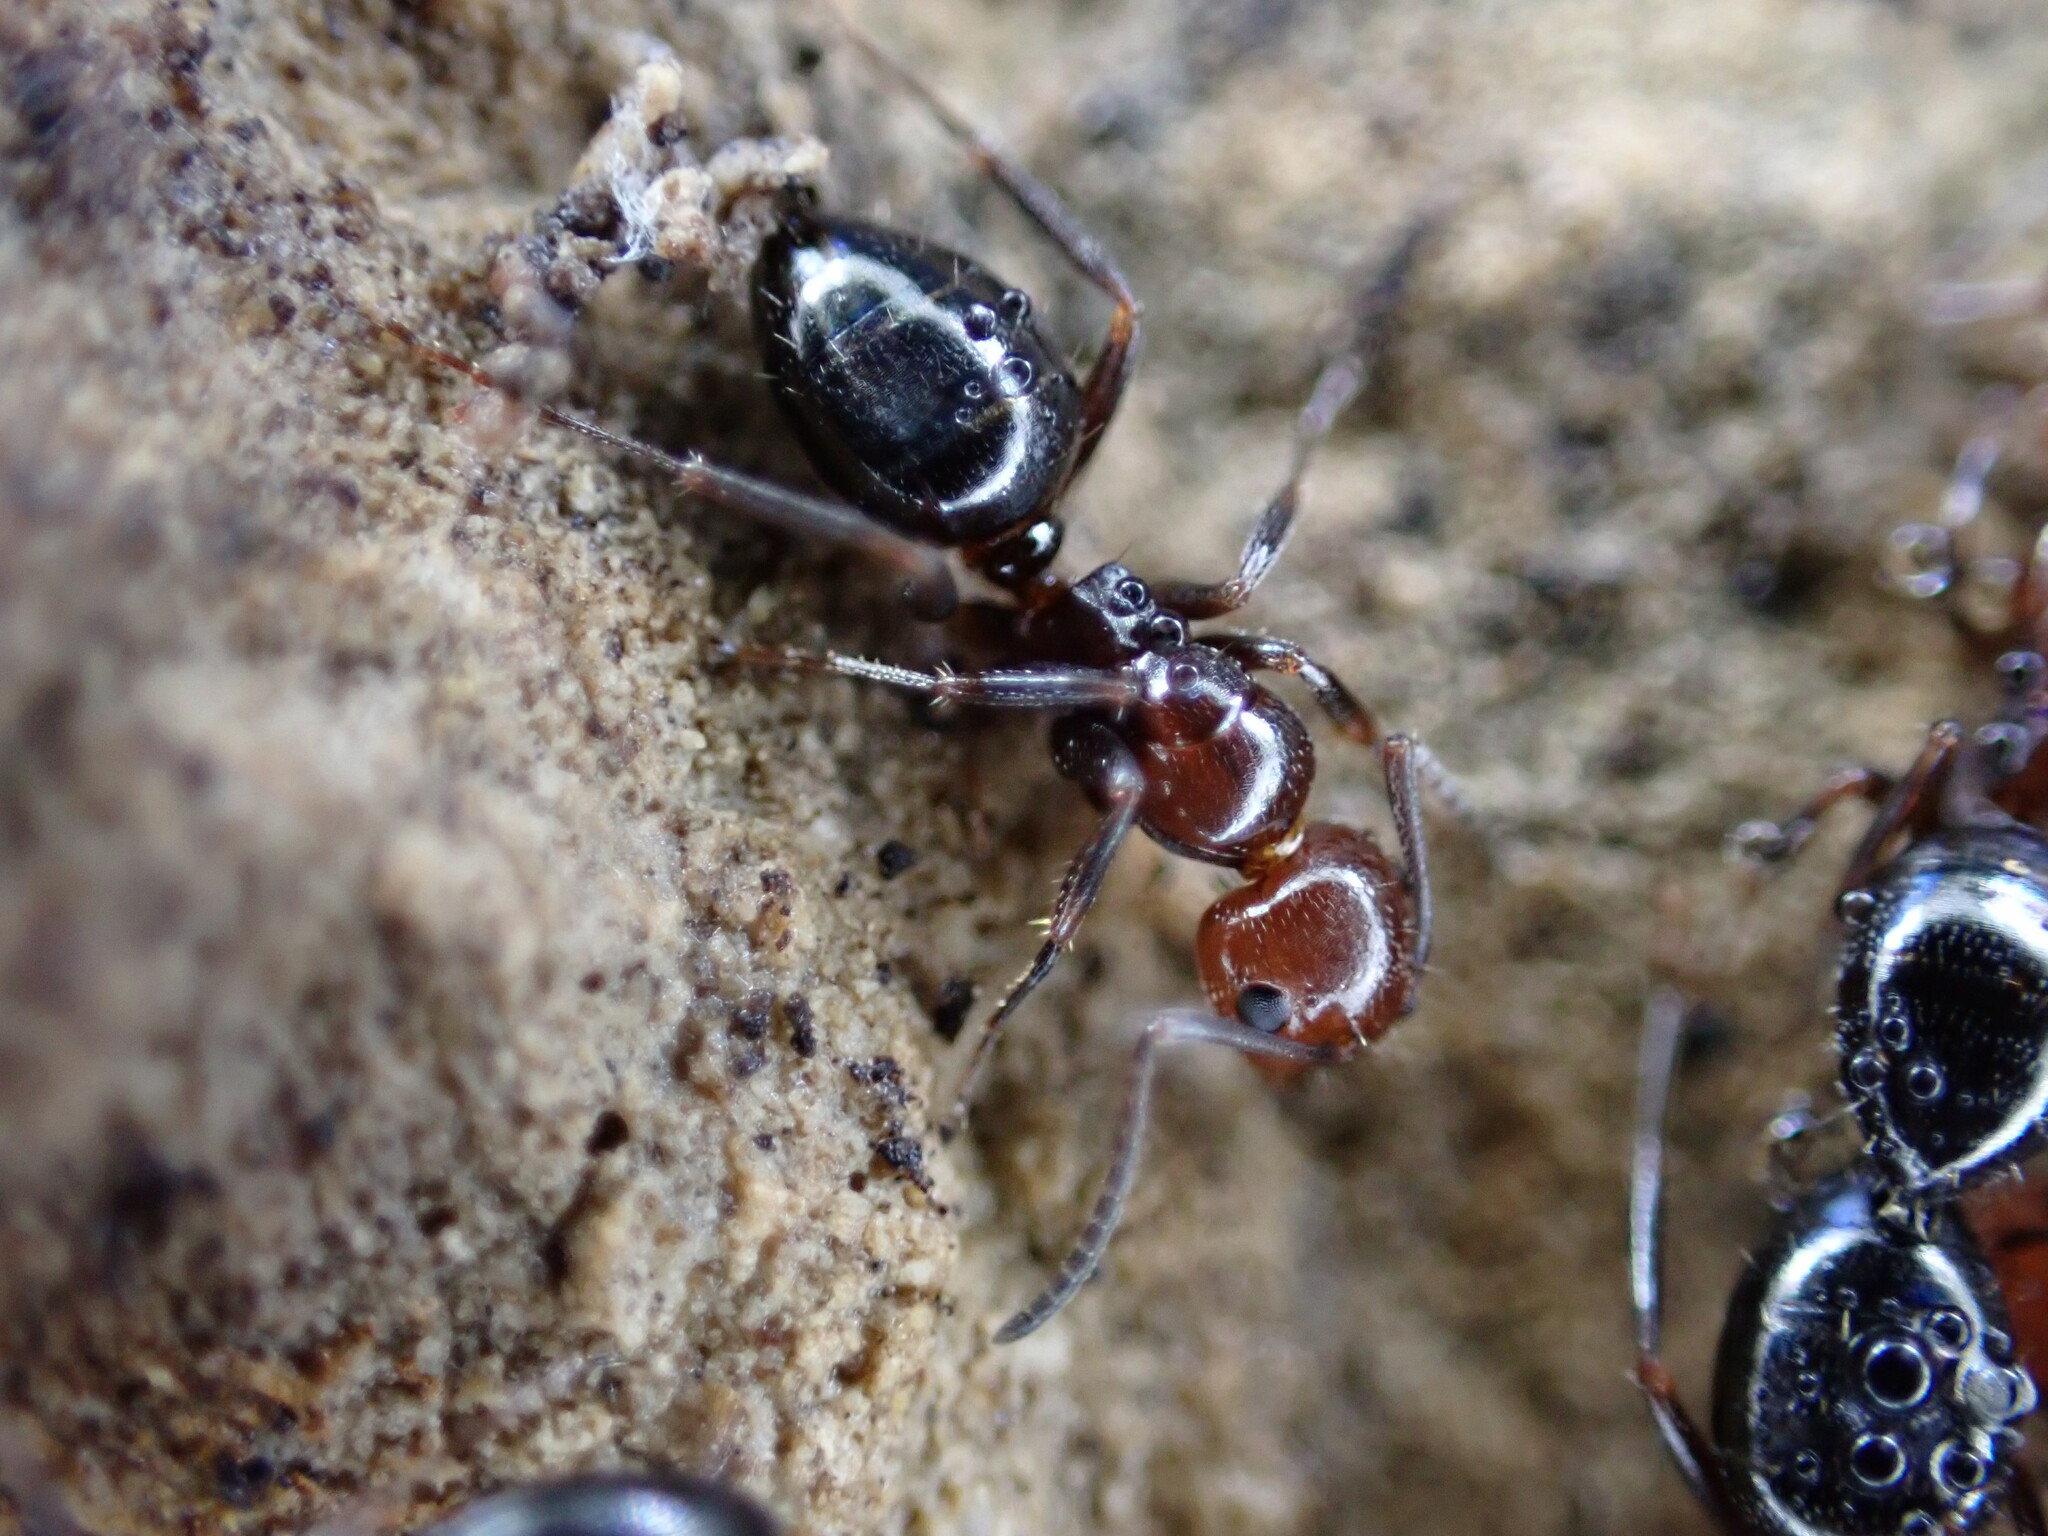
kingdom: Animalia
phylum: Arthropoda
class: Insecta
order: Hymenoptera
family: Formicidae
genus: Camponotus
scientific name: Camponotus lateralis
